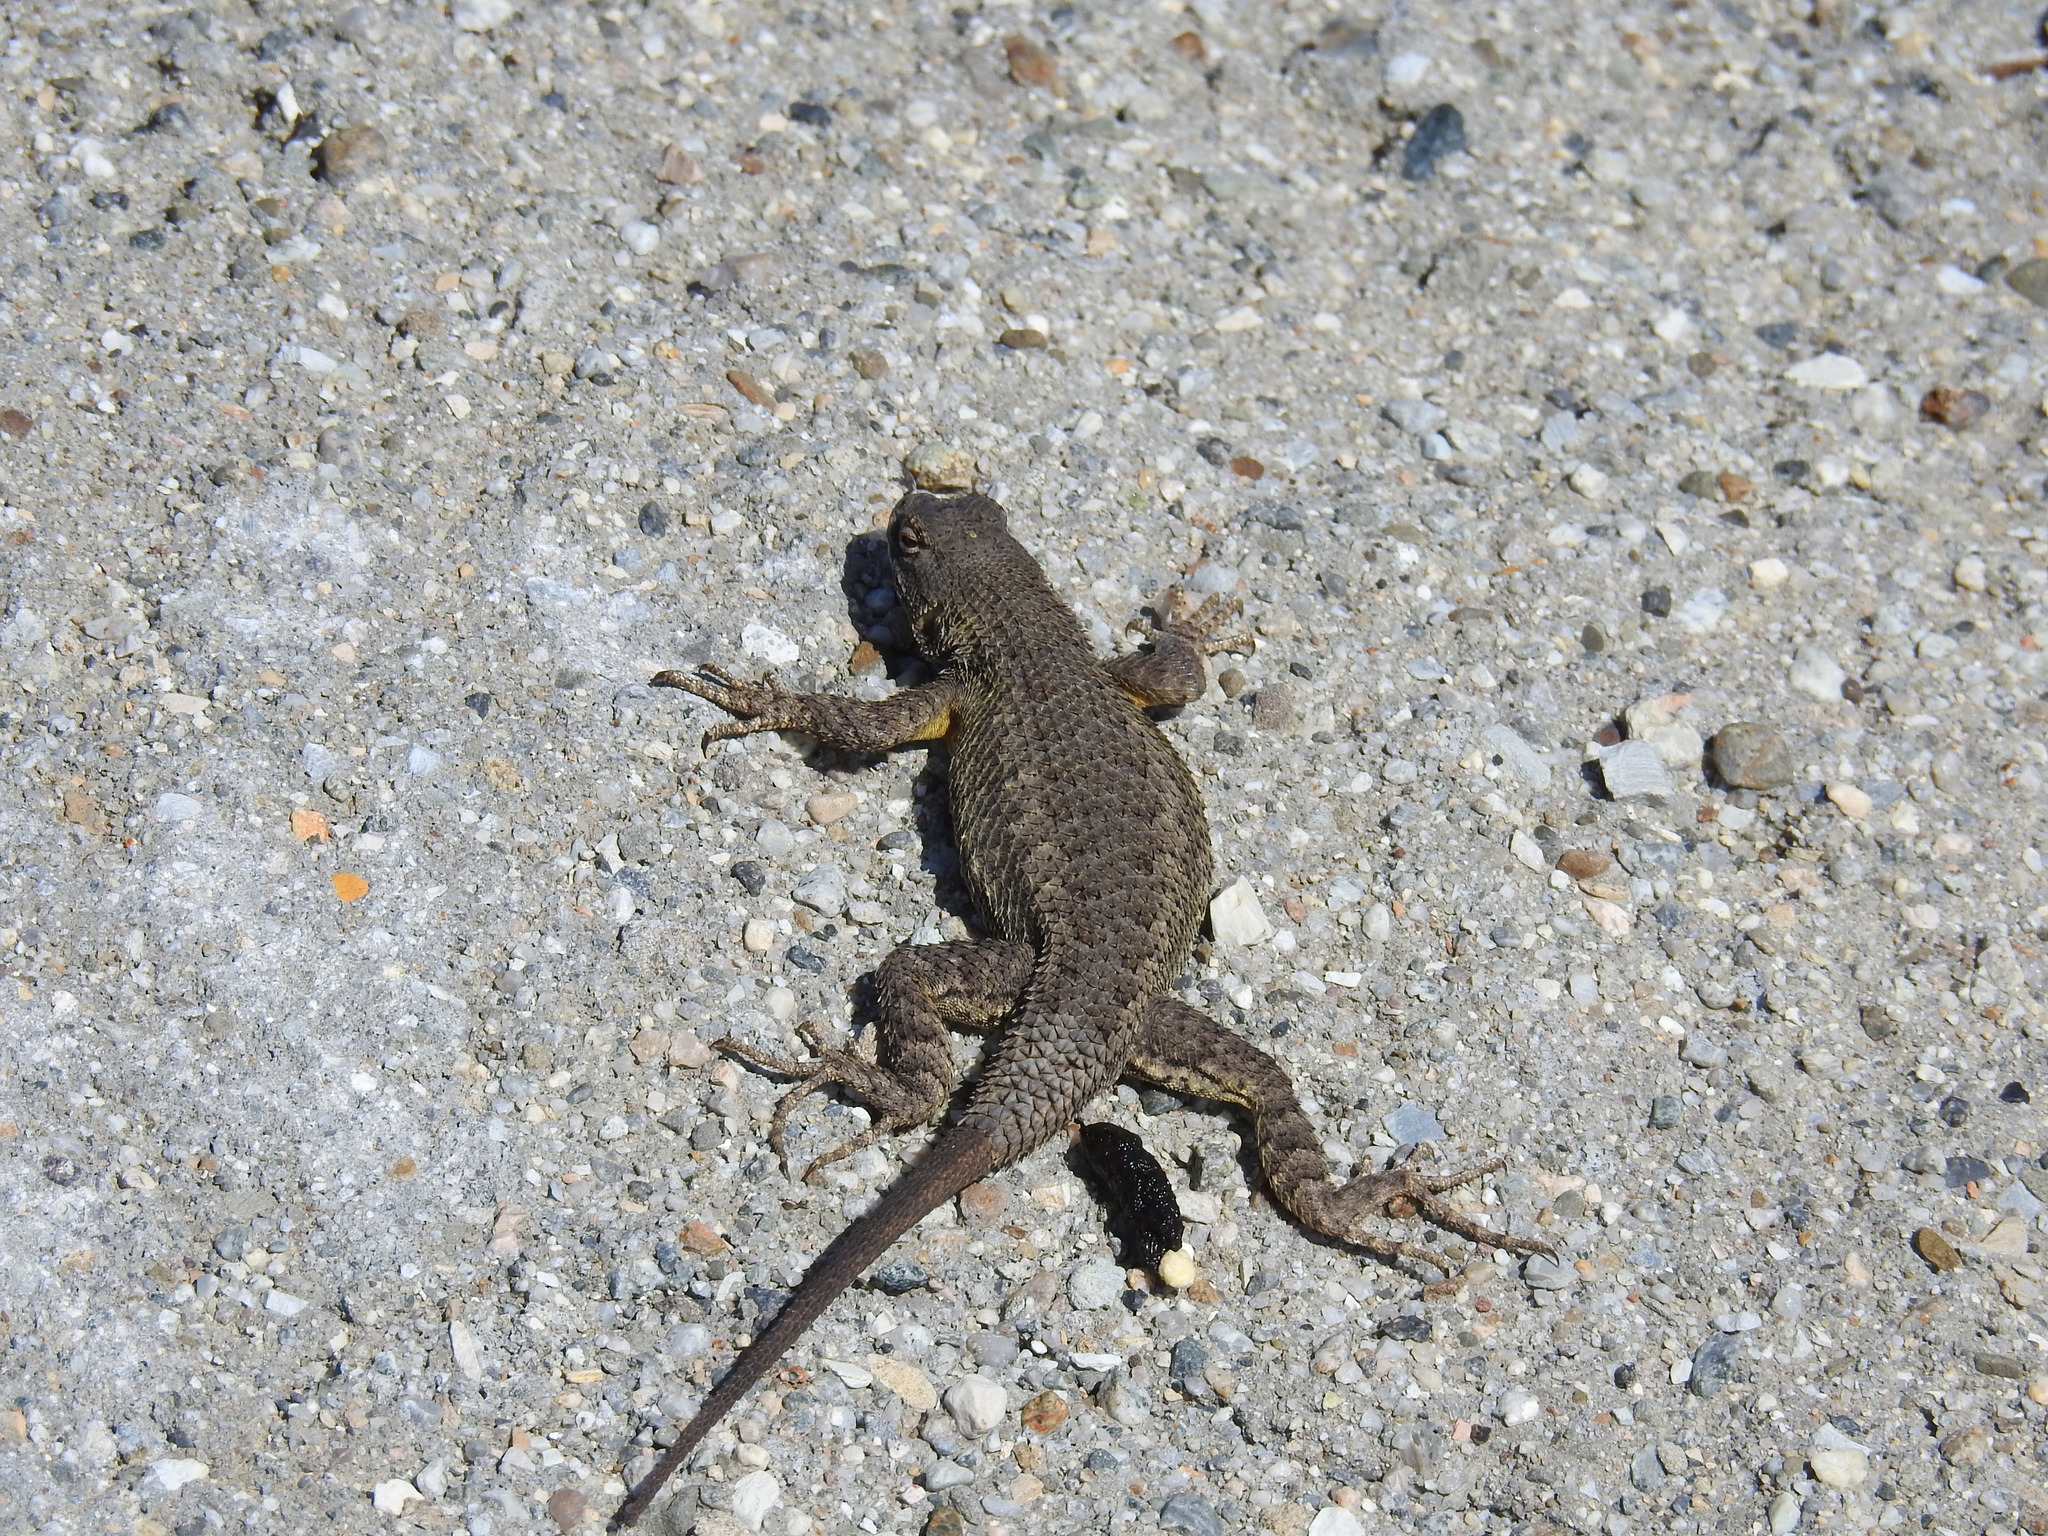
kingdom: Animalia
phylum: Chordata
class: Squamata
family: Phrynosomatidae
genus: Sceloporus
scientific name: Sceloporus occidentalis
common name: Western fence lizard
